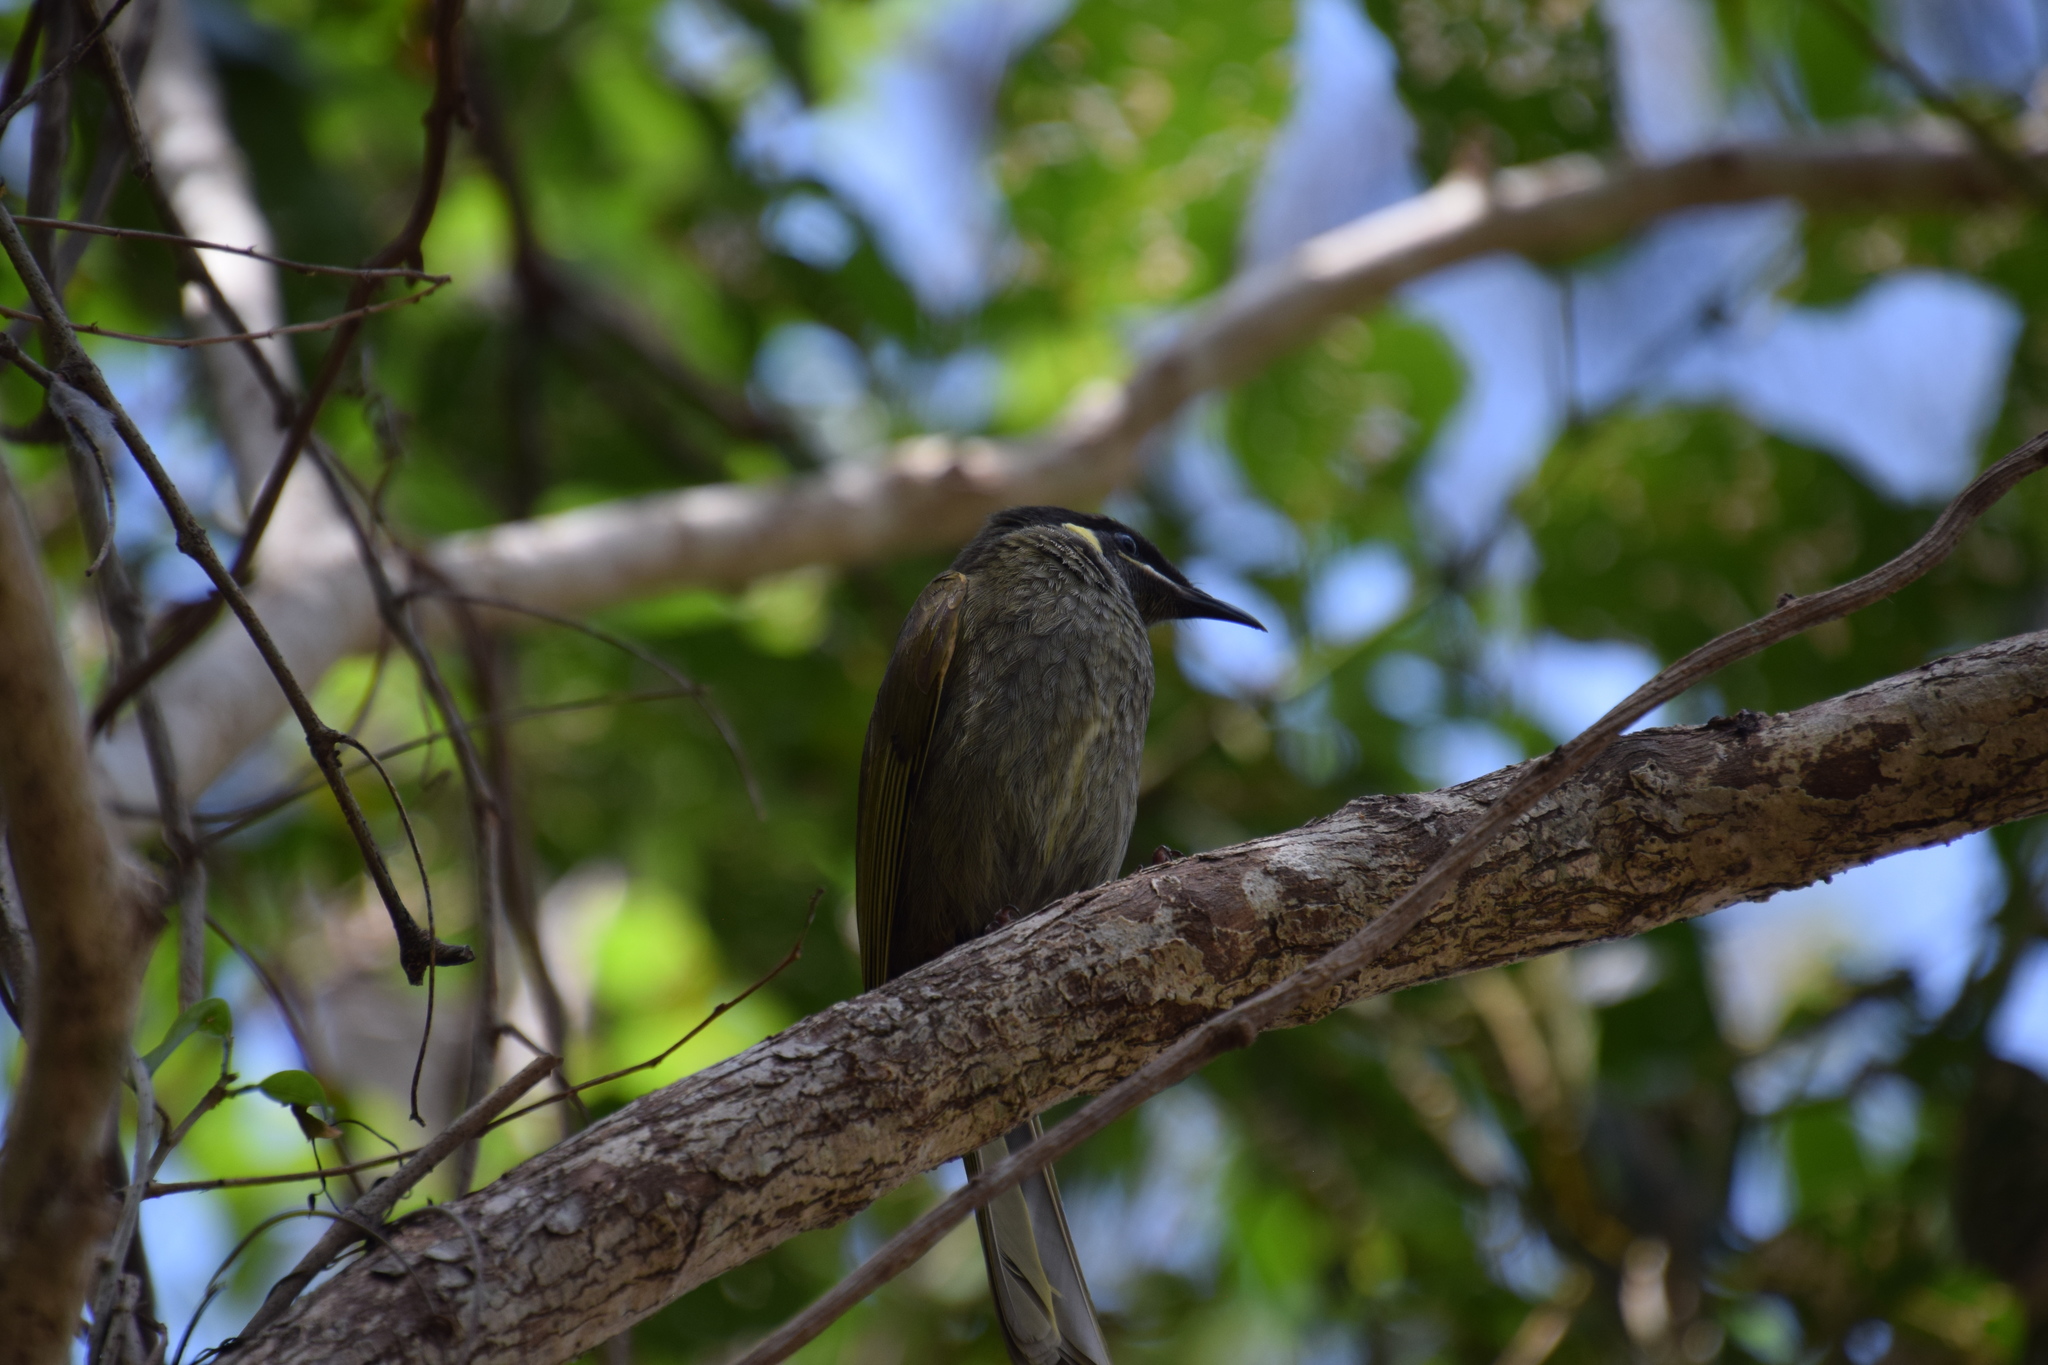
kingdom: Animalia
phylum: Chordata
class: Aves
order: Passeriformes
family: Meliphagidae
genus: Meliphaga
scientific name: Meliphaga lewinii
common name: Lewin's honeyeater
